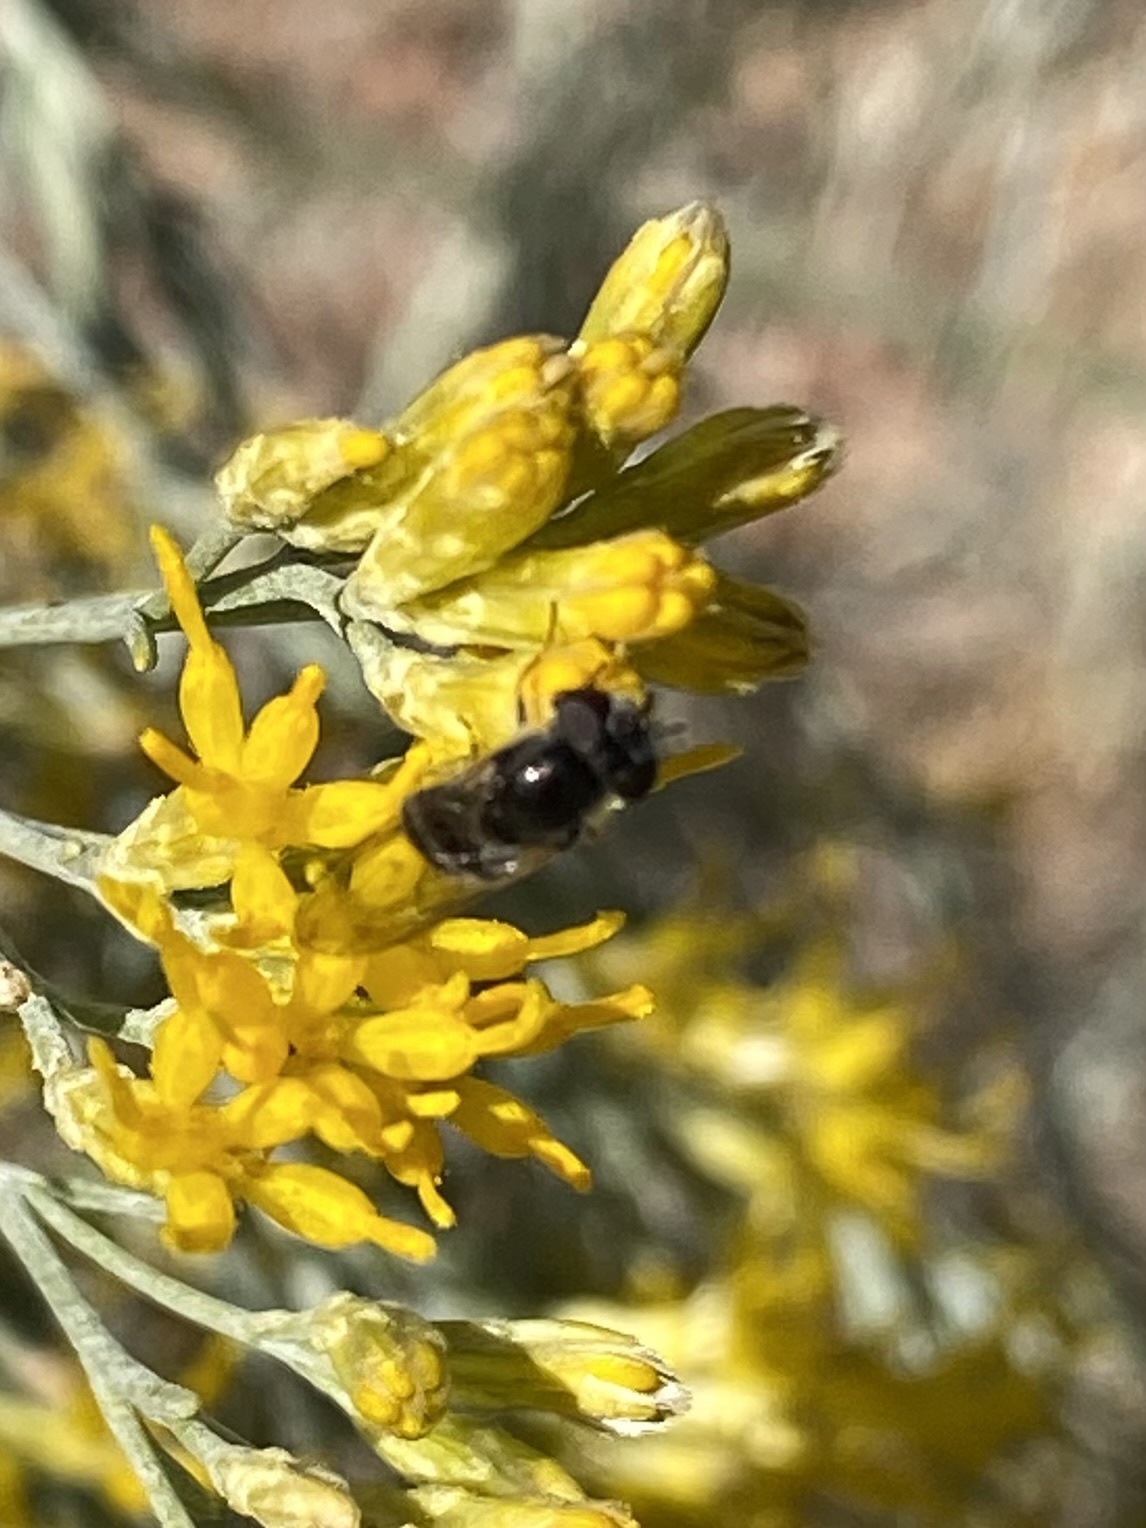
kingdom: Animalia
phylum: Arthropoda
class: Insecta
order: Diptera
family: Syrphidae
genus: Platycheirus
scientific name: Platycheirus
